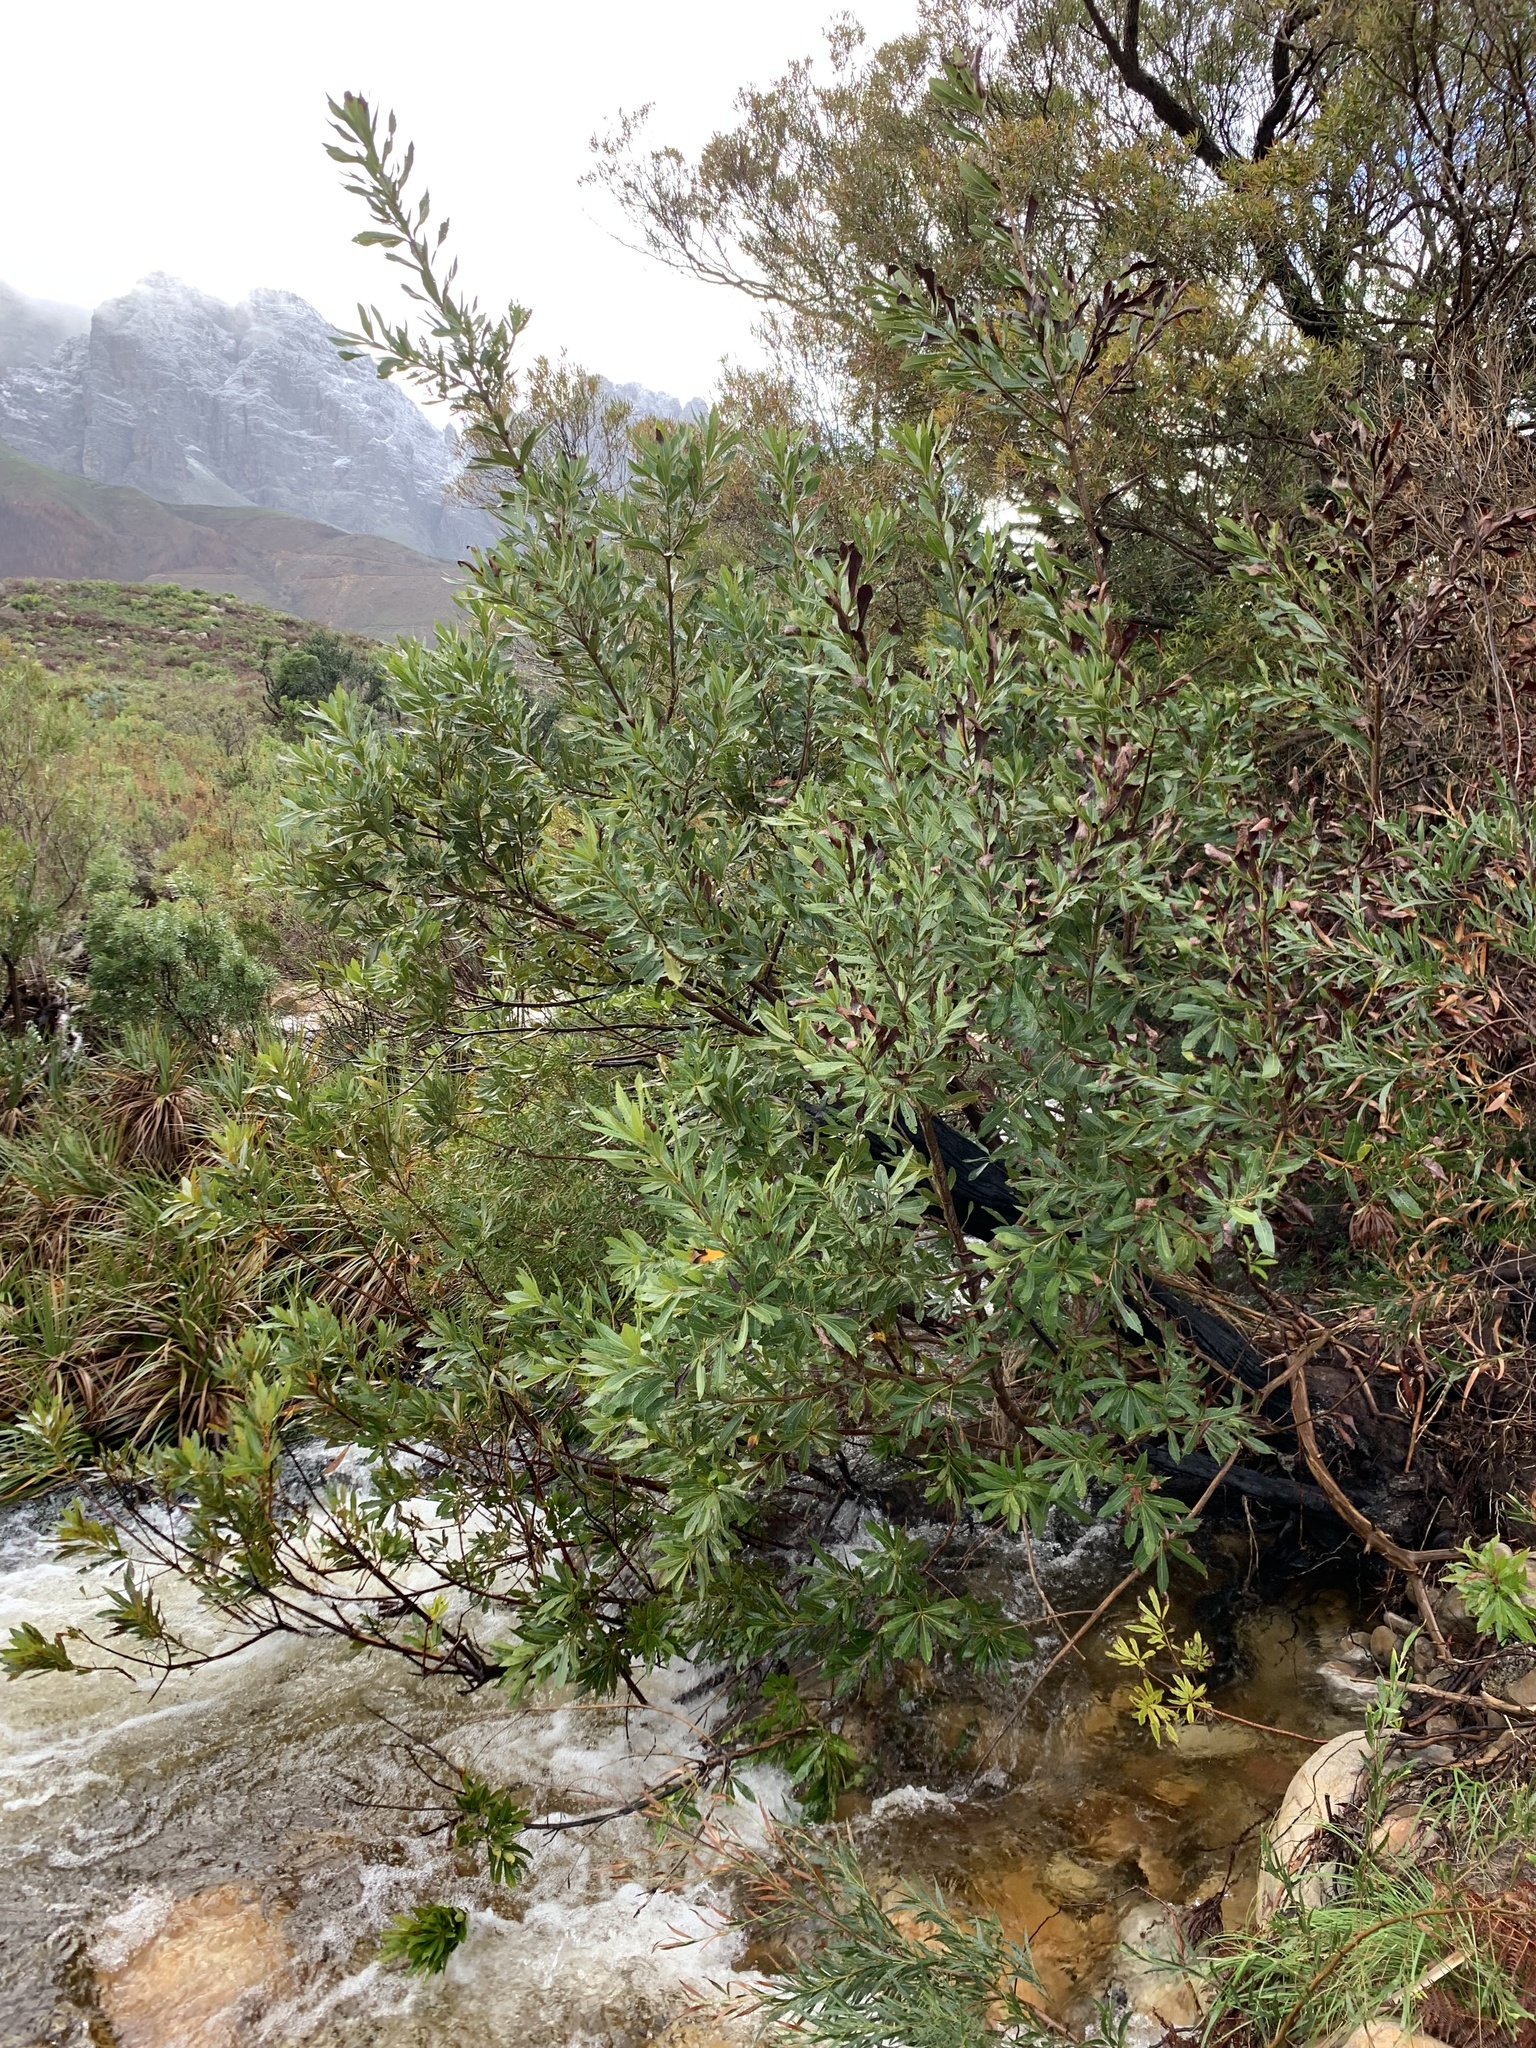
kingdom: Plantae
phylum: Tracheophyta
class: Magnoliopsida
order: Proteales
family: Proteaceae
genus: Brabejum
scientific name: Brabejum stellatifolium
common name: Wild almond
